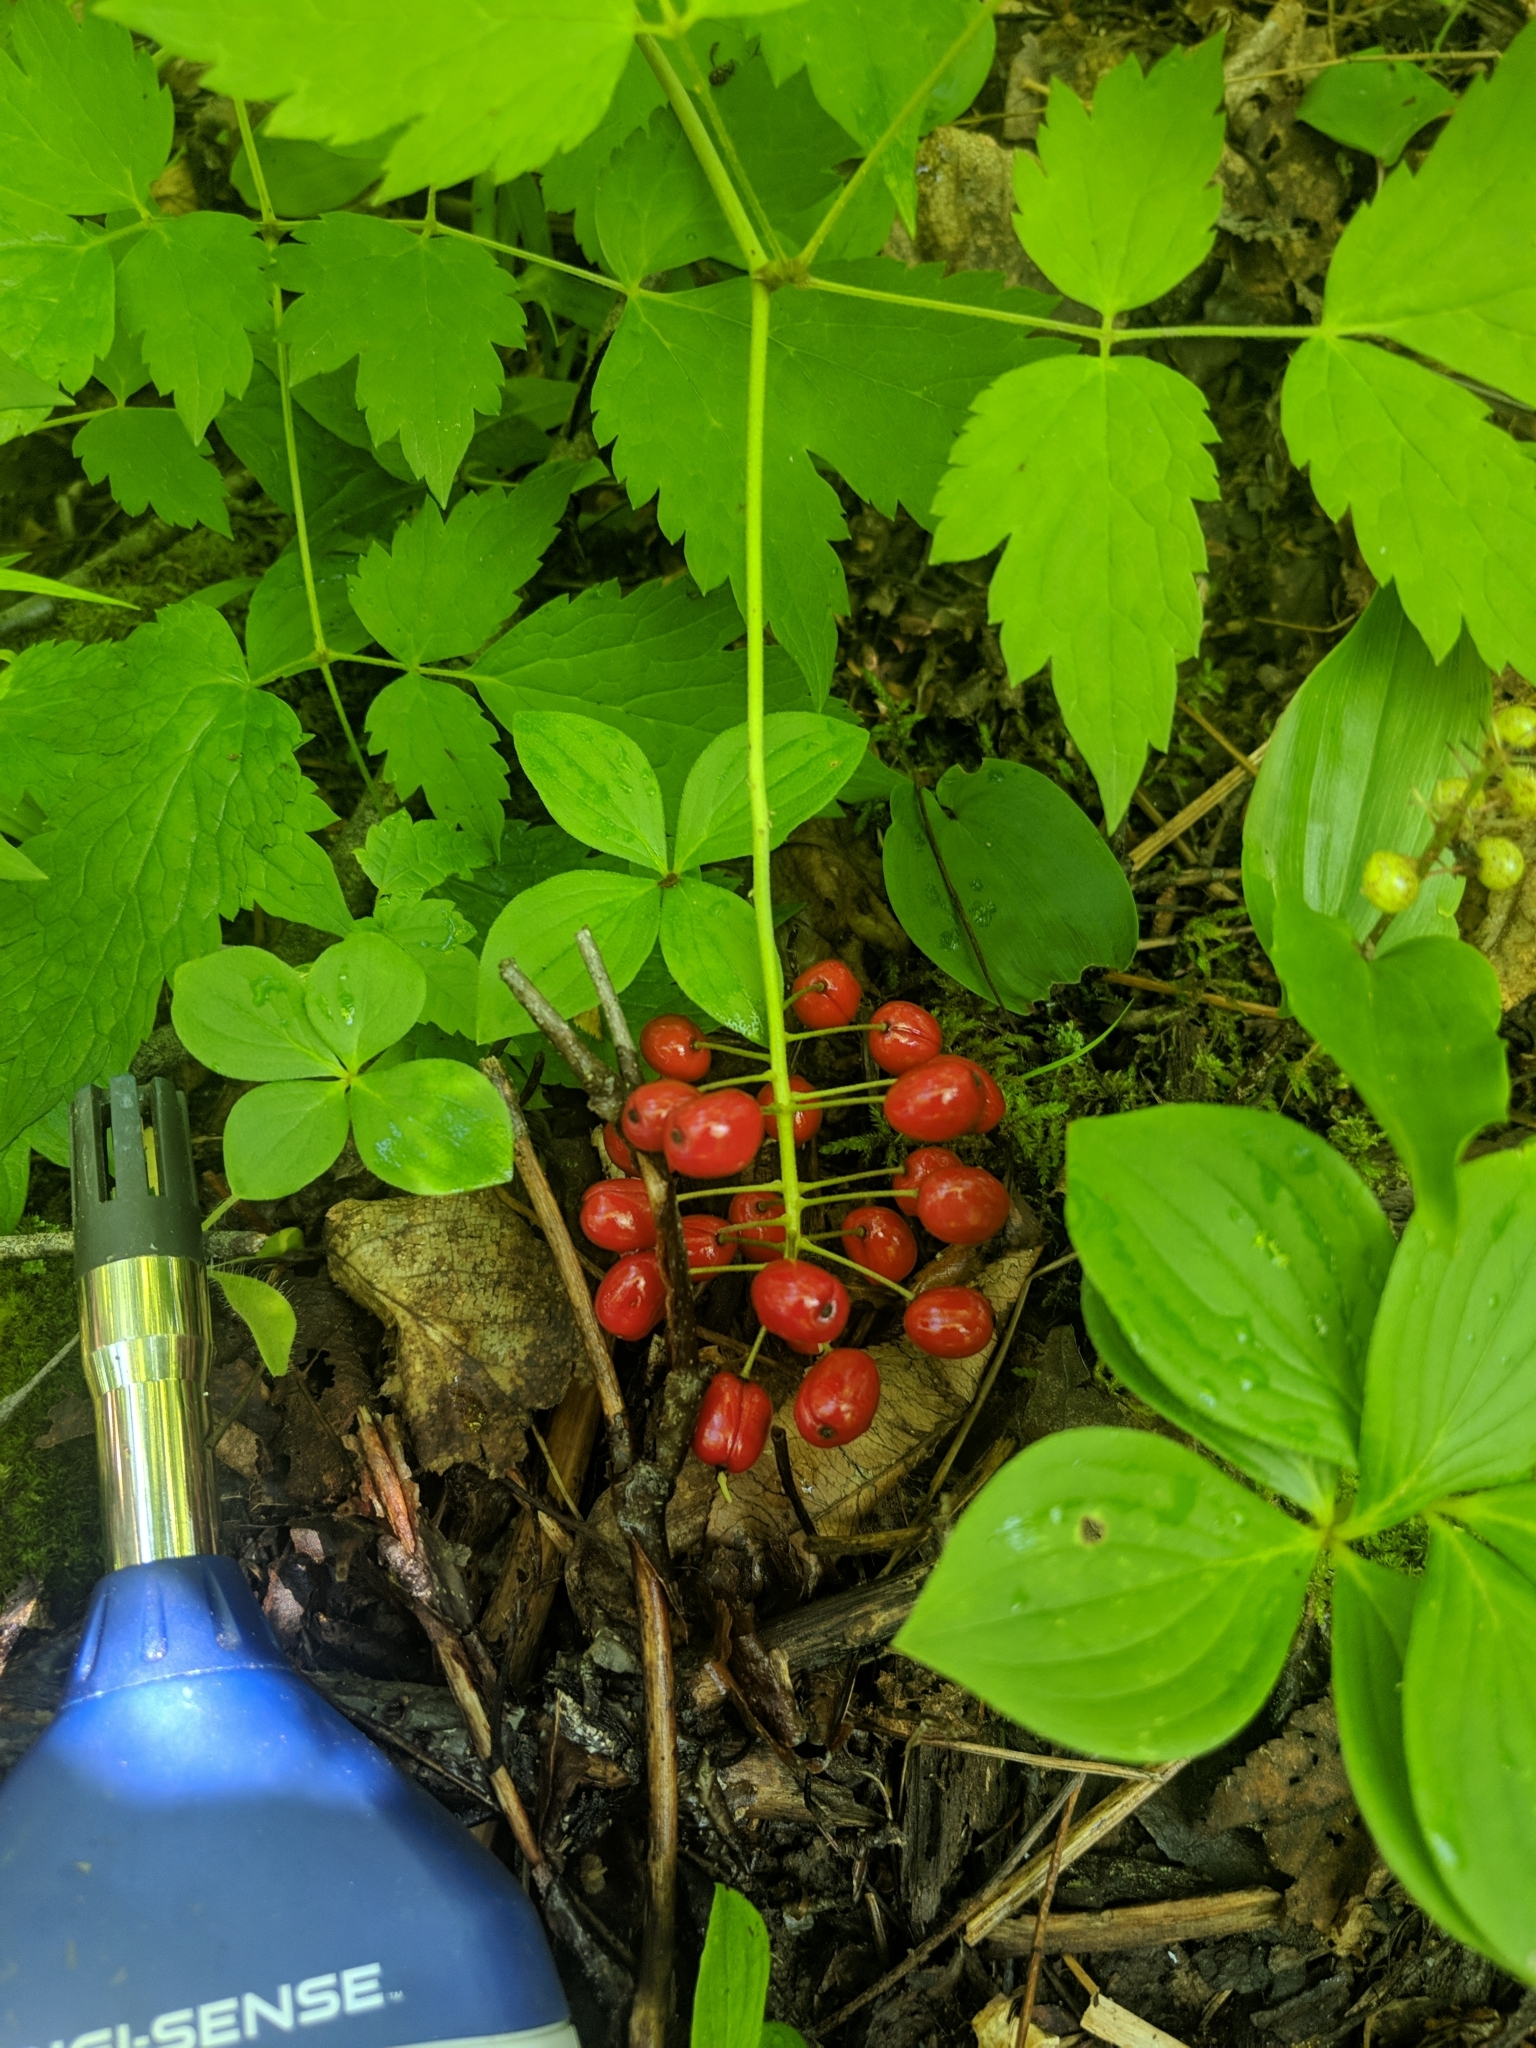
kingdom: Plantae
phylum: Tracheophyta
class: Magnoliopsida
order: Ranunculales
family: Ranunculaceae
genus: Actaea
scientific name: Actaea rubra
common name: Red baneberry
